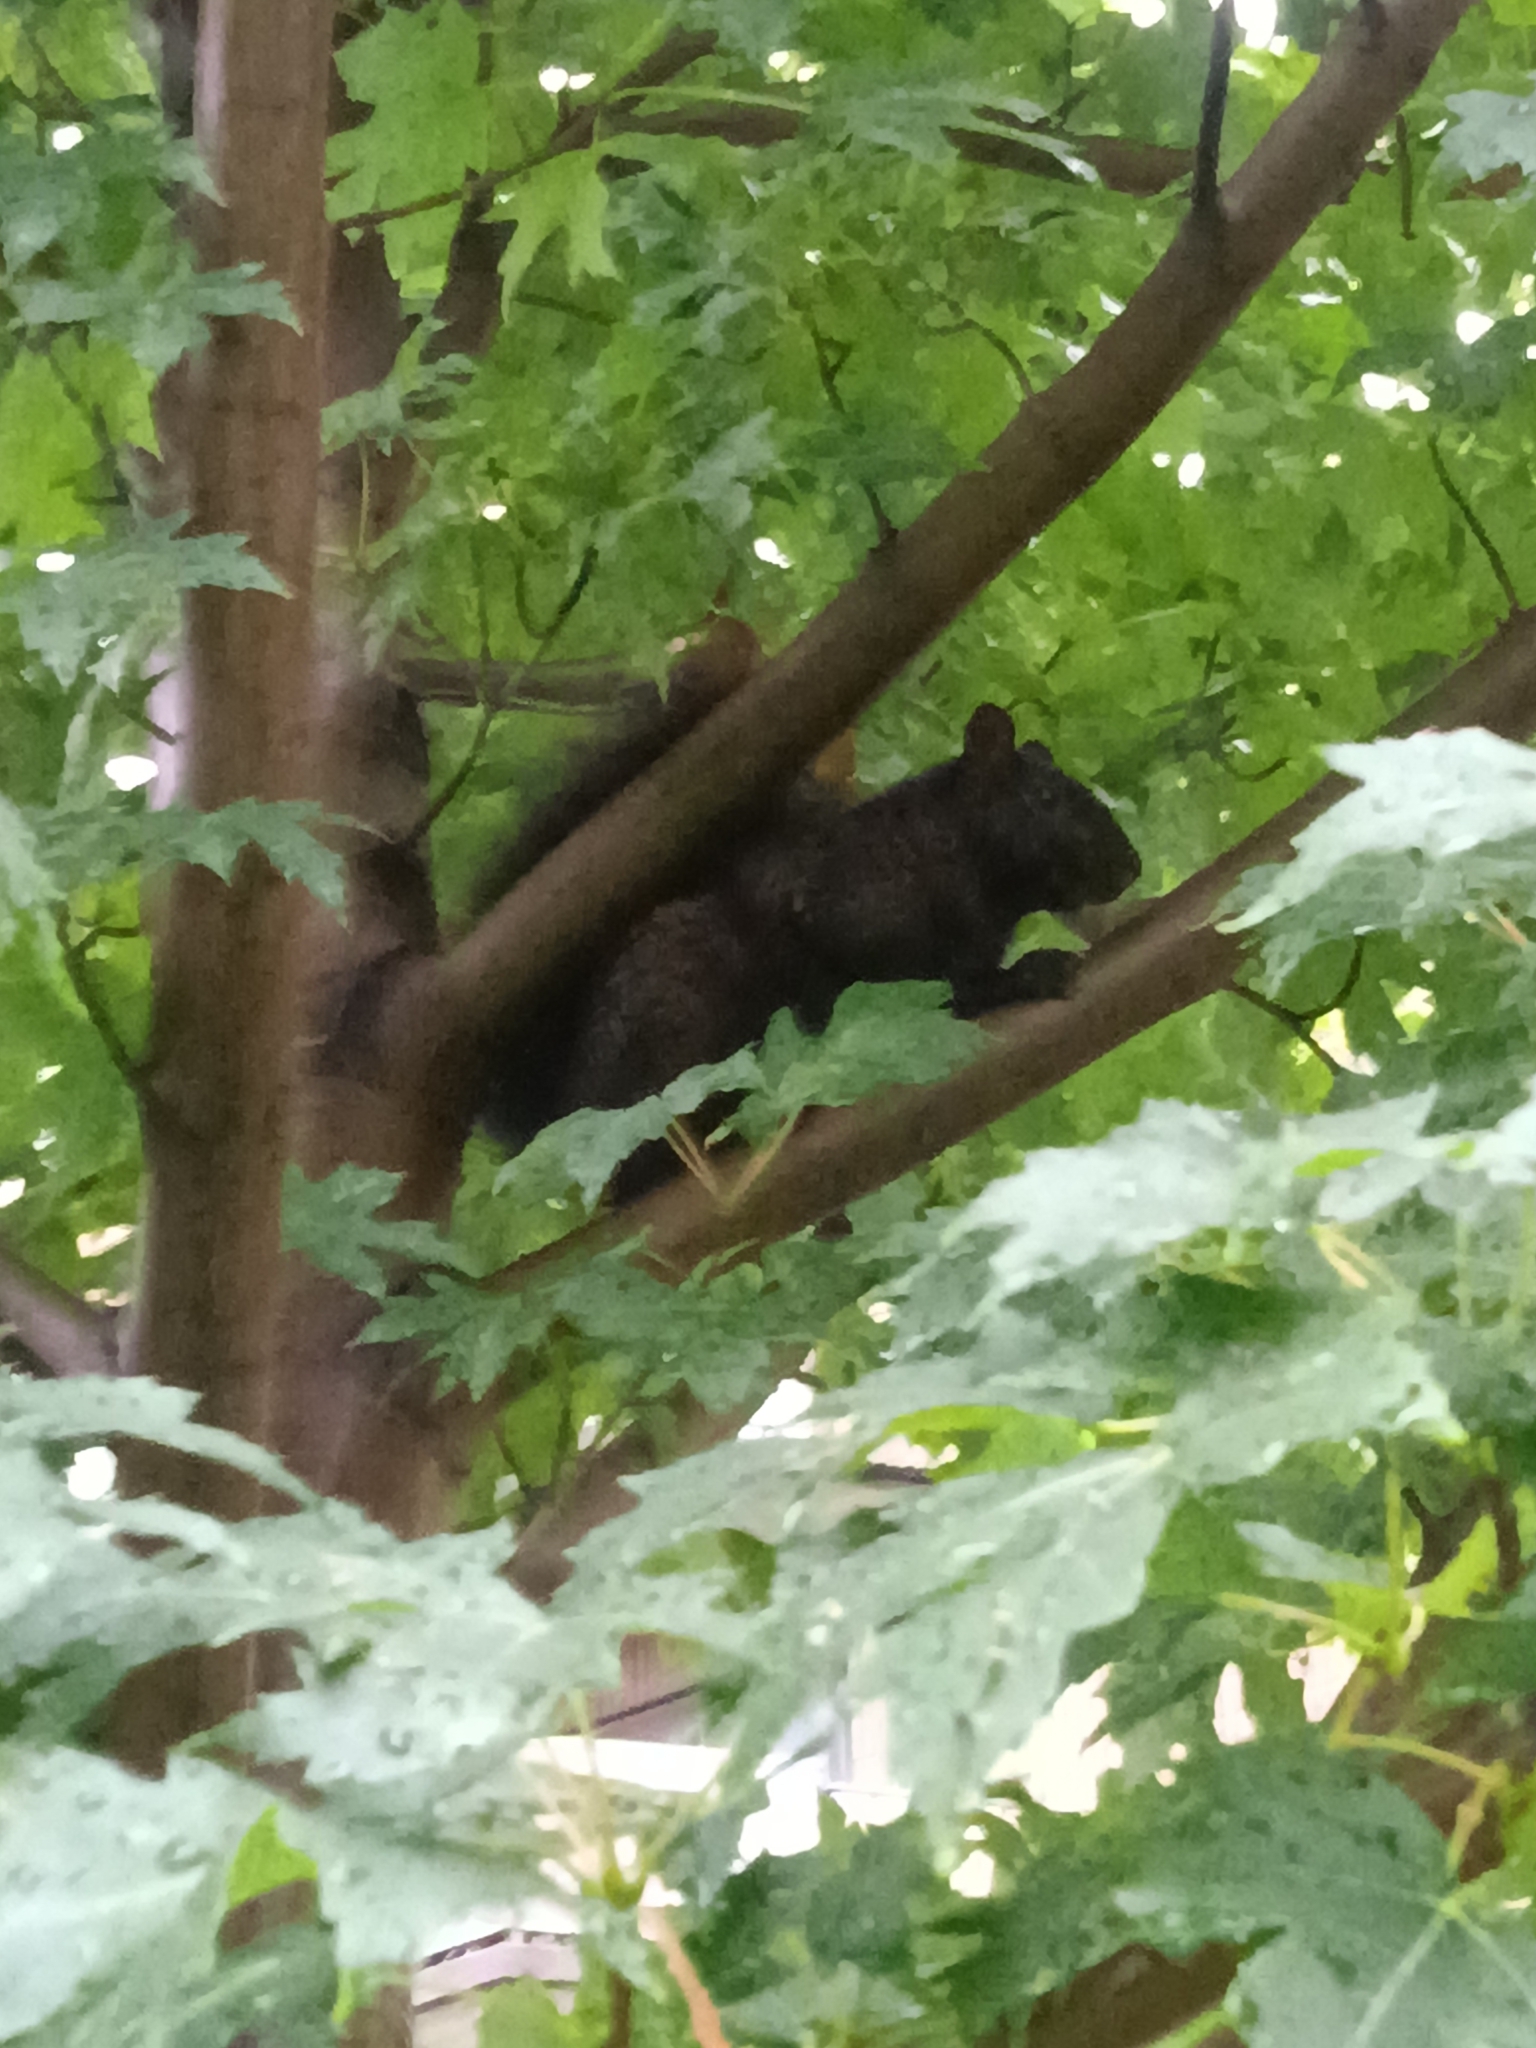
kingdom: Animalia
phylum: Chordata
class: Mammalia
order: Rodentia
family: Sciuridae
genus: Sciurus
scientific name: Sciurus carolinensis
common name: Eastern gray squirrel
